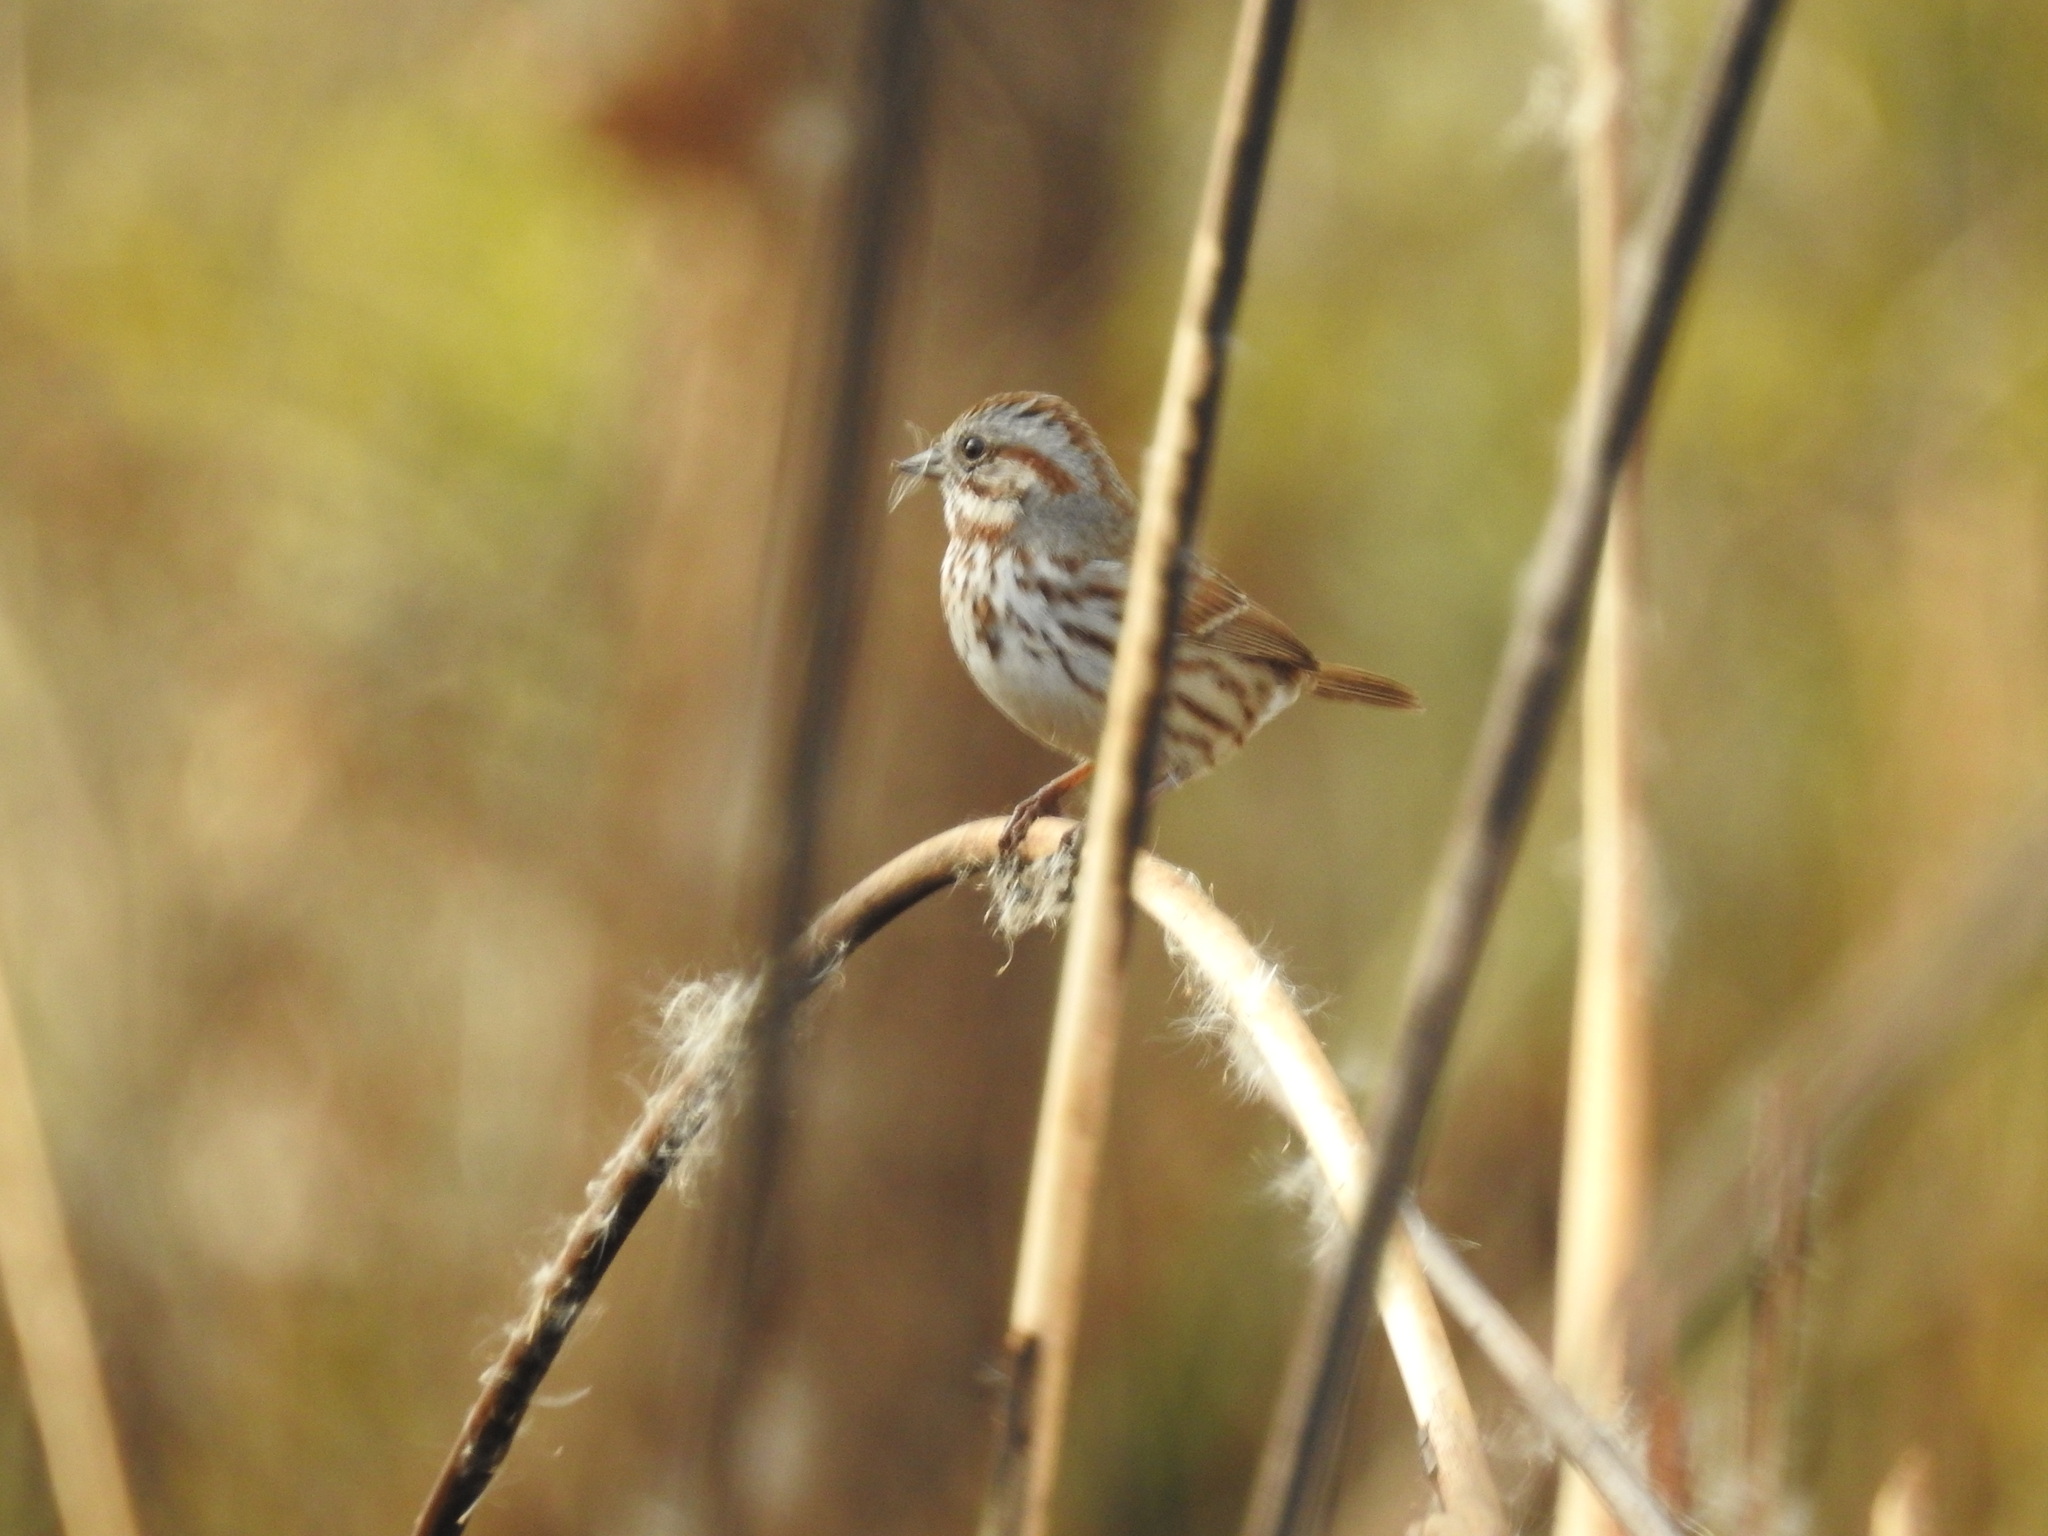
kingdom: Animalia
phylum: Chordata
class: Aves
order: Passeriformes
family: Passerellidae
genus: Melospiza
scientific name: Melospiza melodia
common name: Song sparrow
